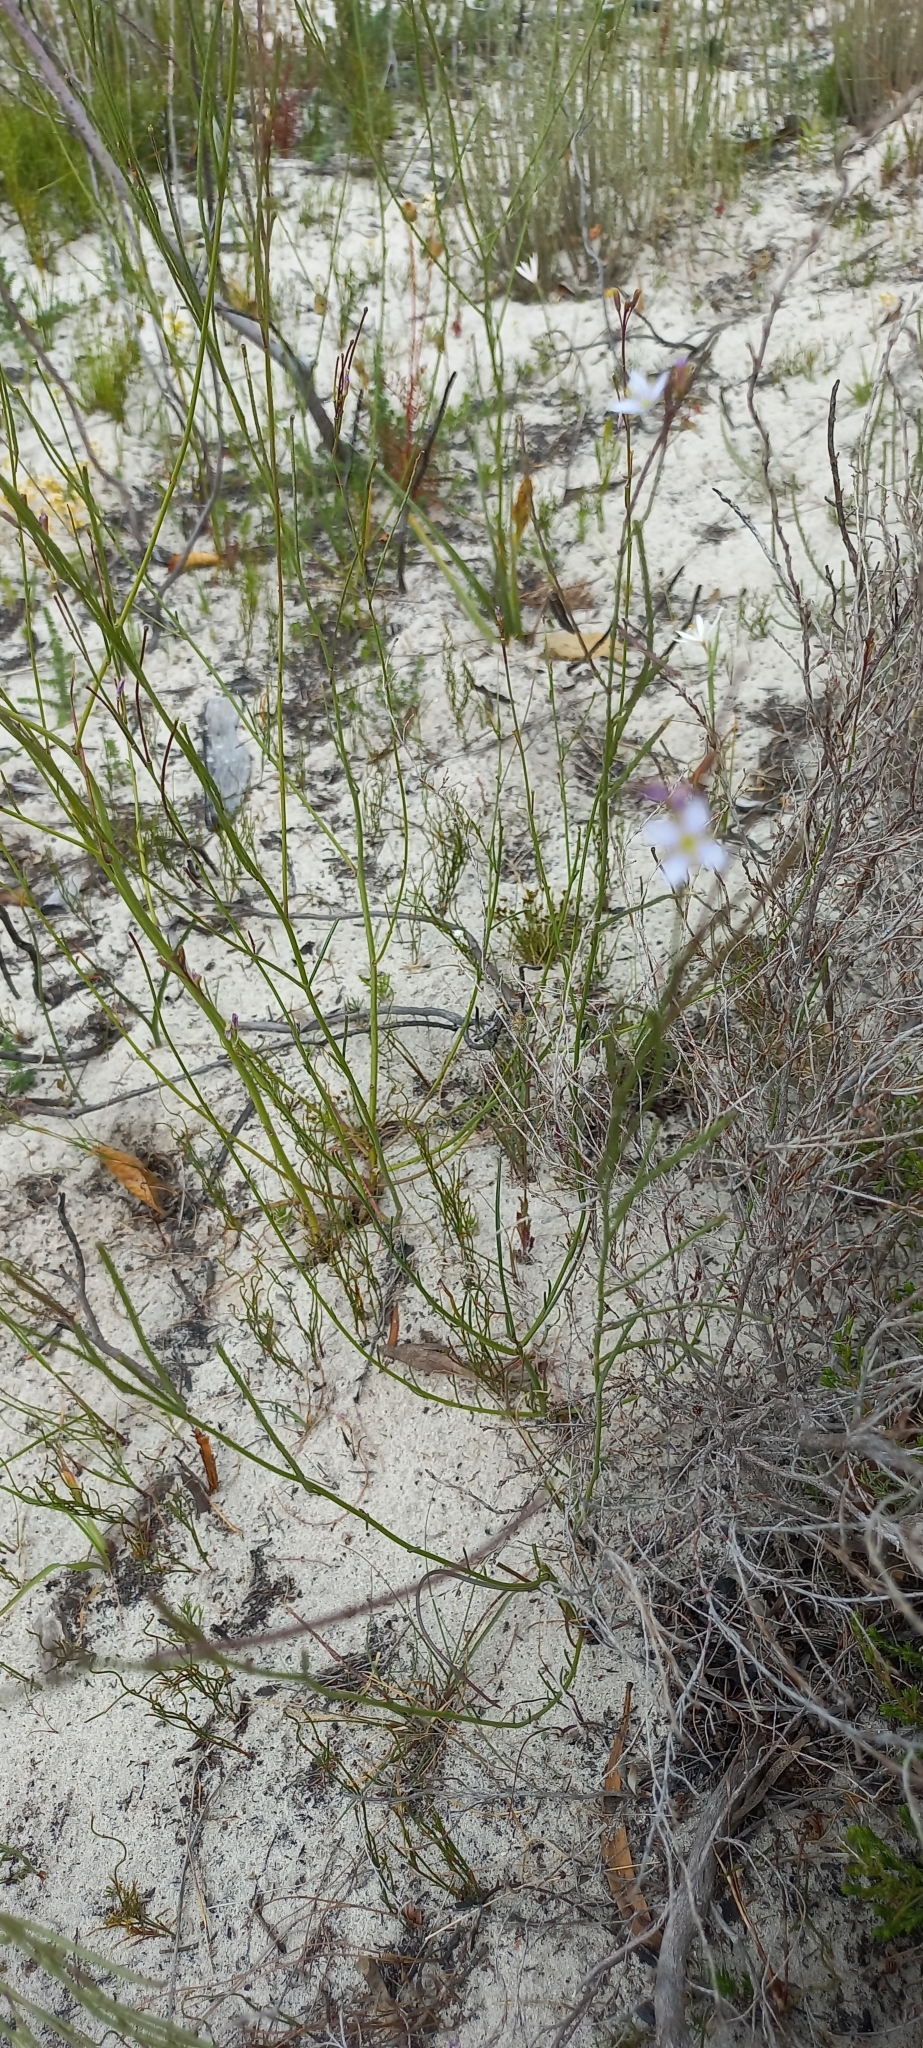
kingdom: Plantae
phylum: Tracheophyta
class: Magnoliopsida
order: Brassicales
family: Brassicaceae
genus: Heliophila
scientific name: Heliophila adpressa
